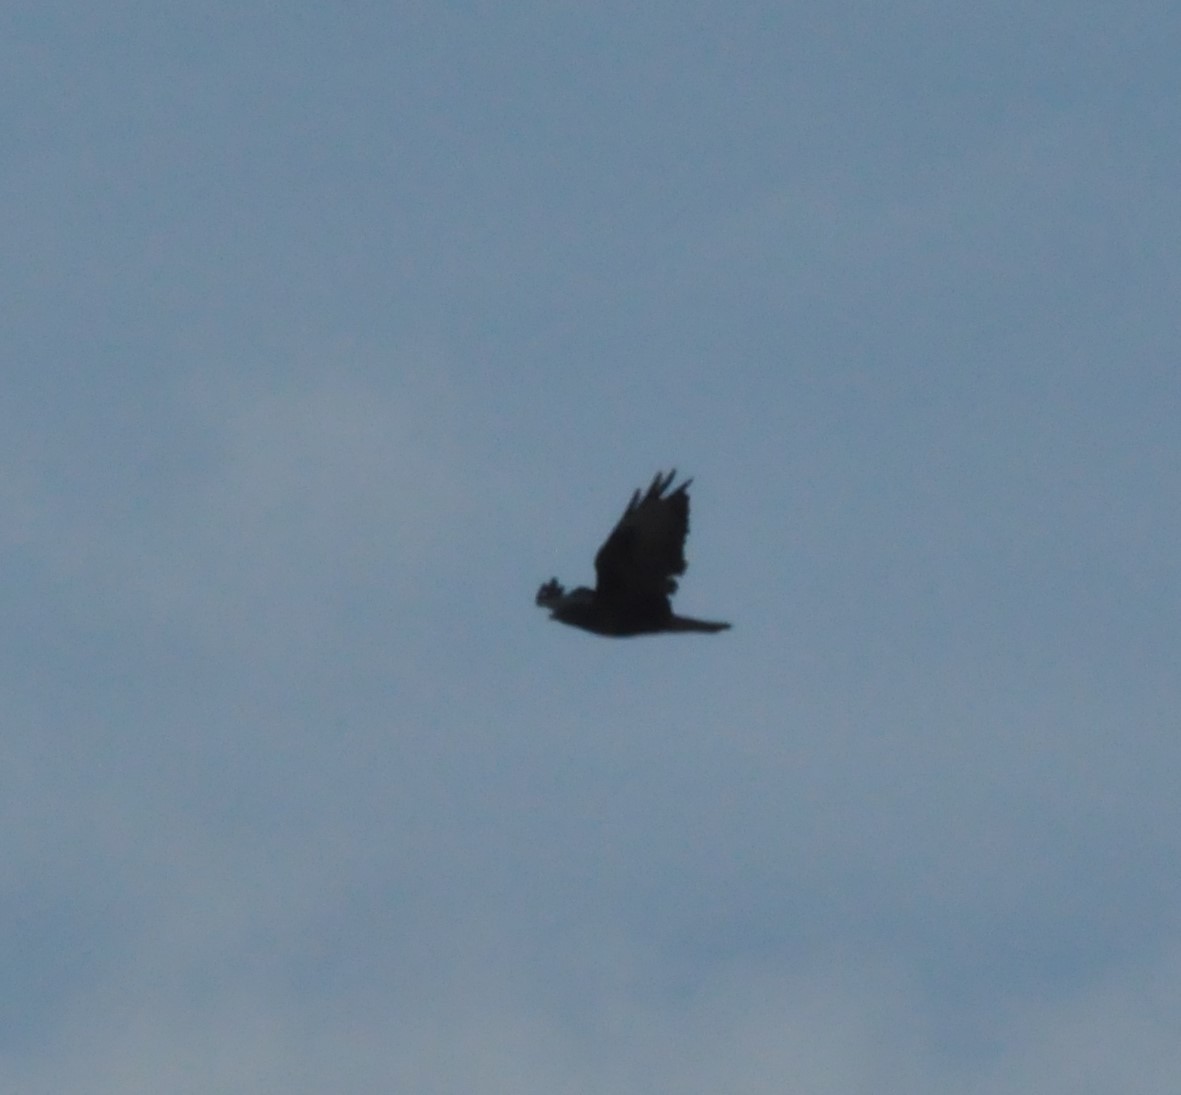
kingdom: Animalia
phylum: Chordata
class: Aves
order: Accipitriformes
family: Accipitridae
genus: Buteo
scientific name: Buteo buteo
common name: Common buzzard
